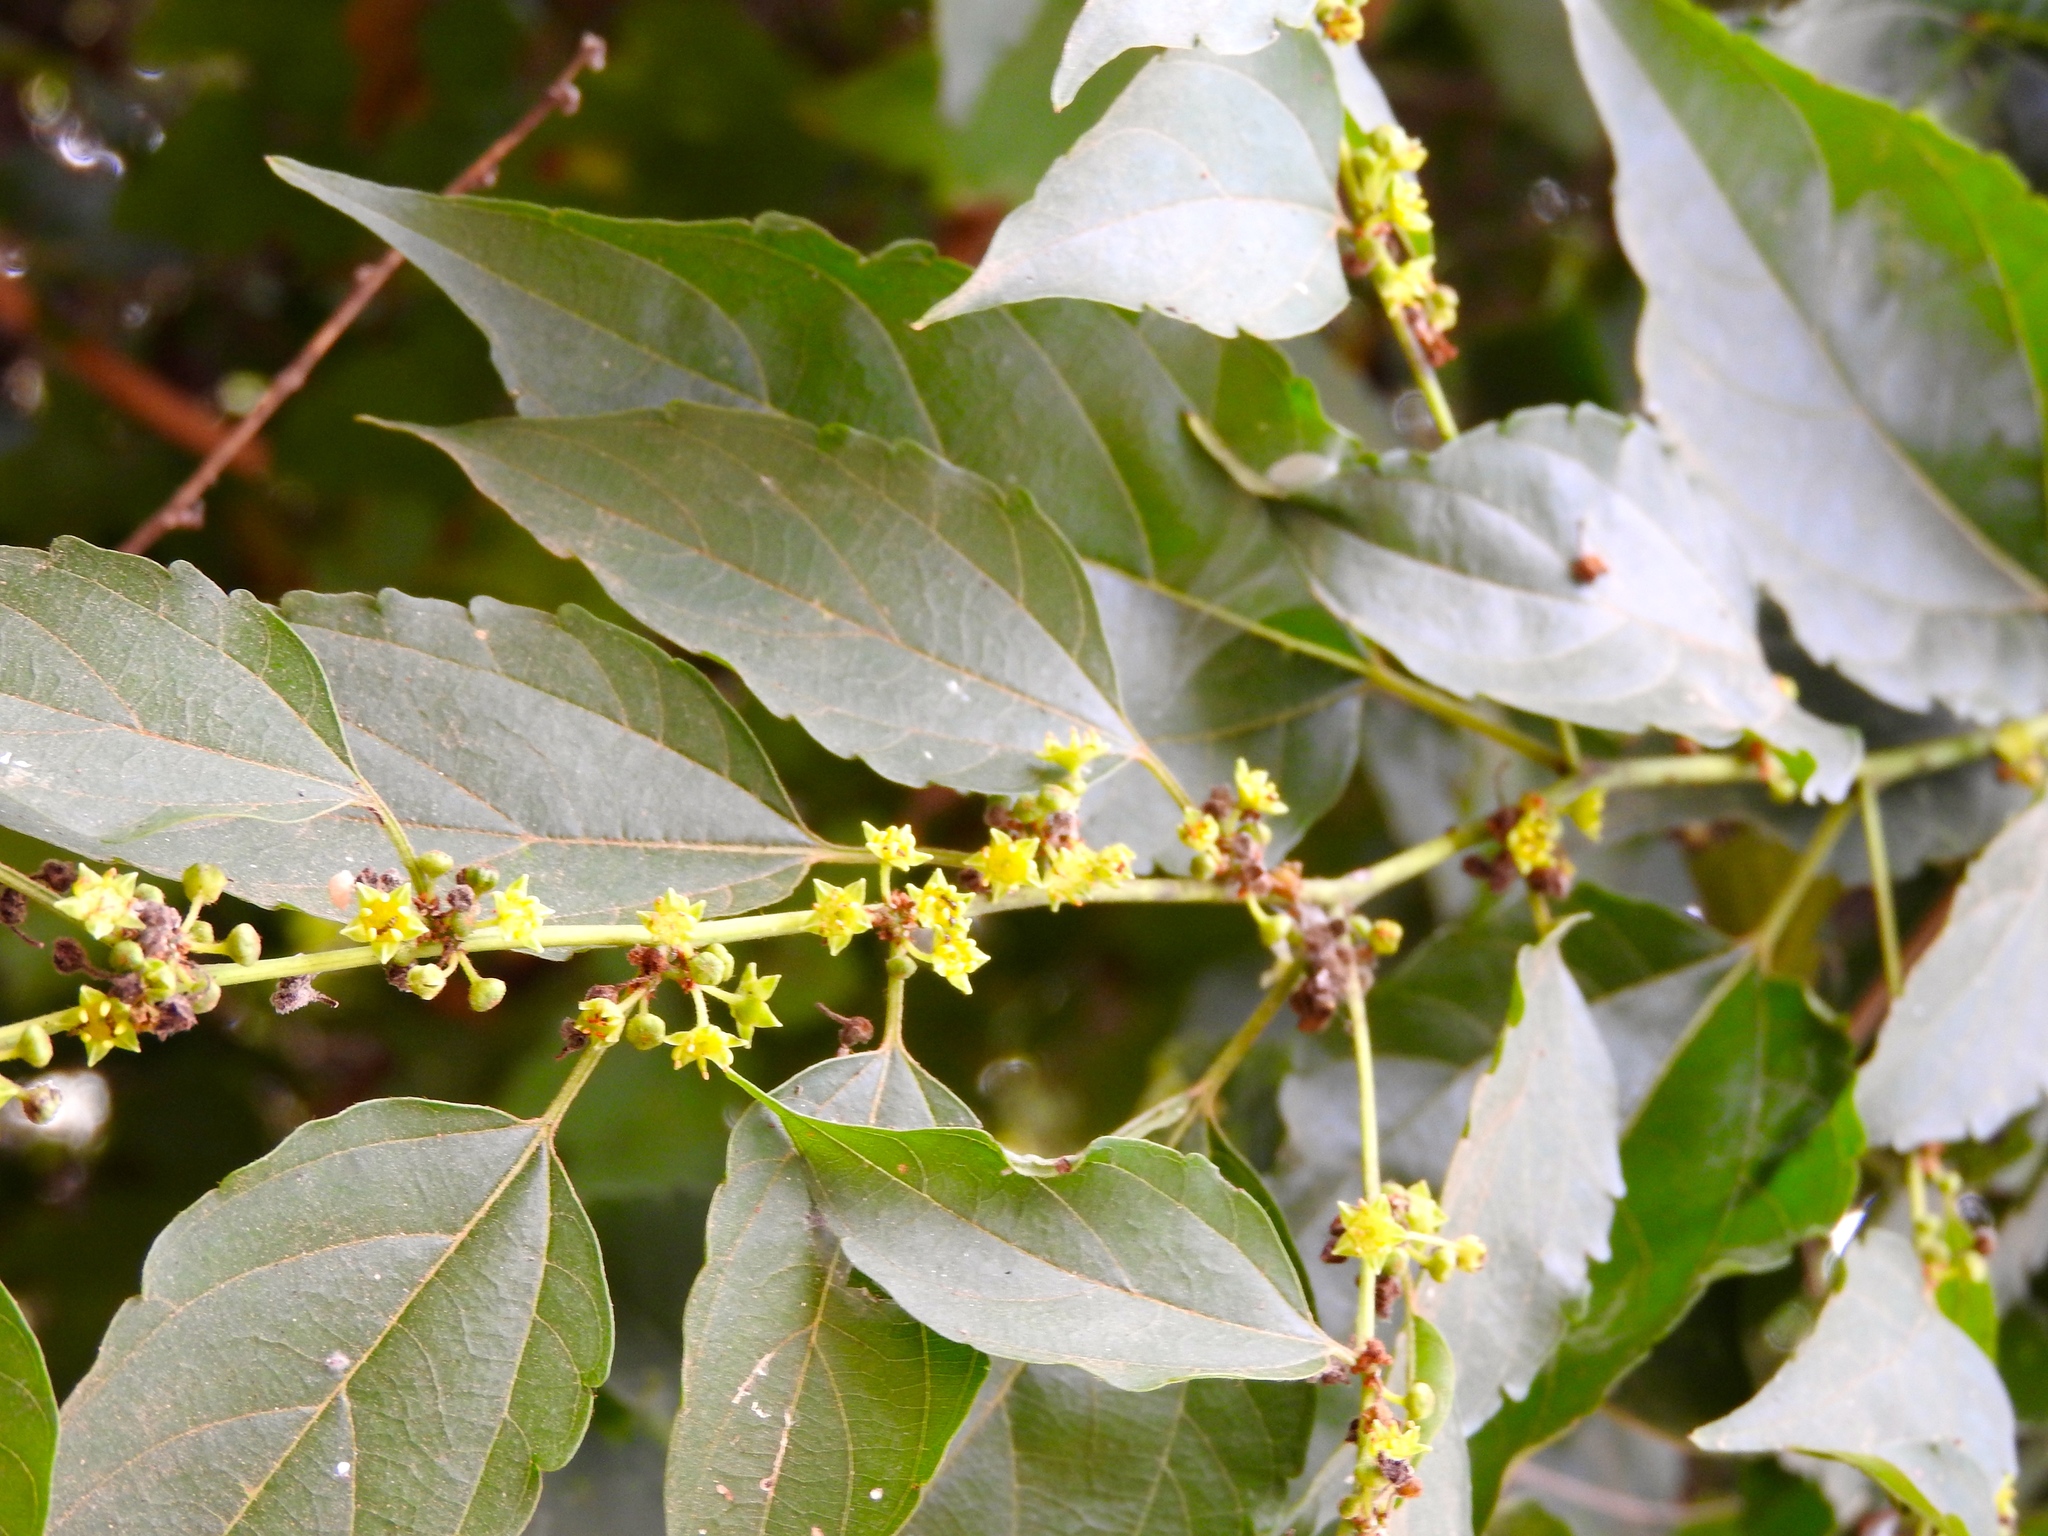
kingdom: Plantae
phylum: Tracheophyta
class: Magnoliopsida
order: Rosales
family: Rhamnaceae
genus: Colubrina
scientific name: Colubrina triflora
